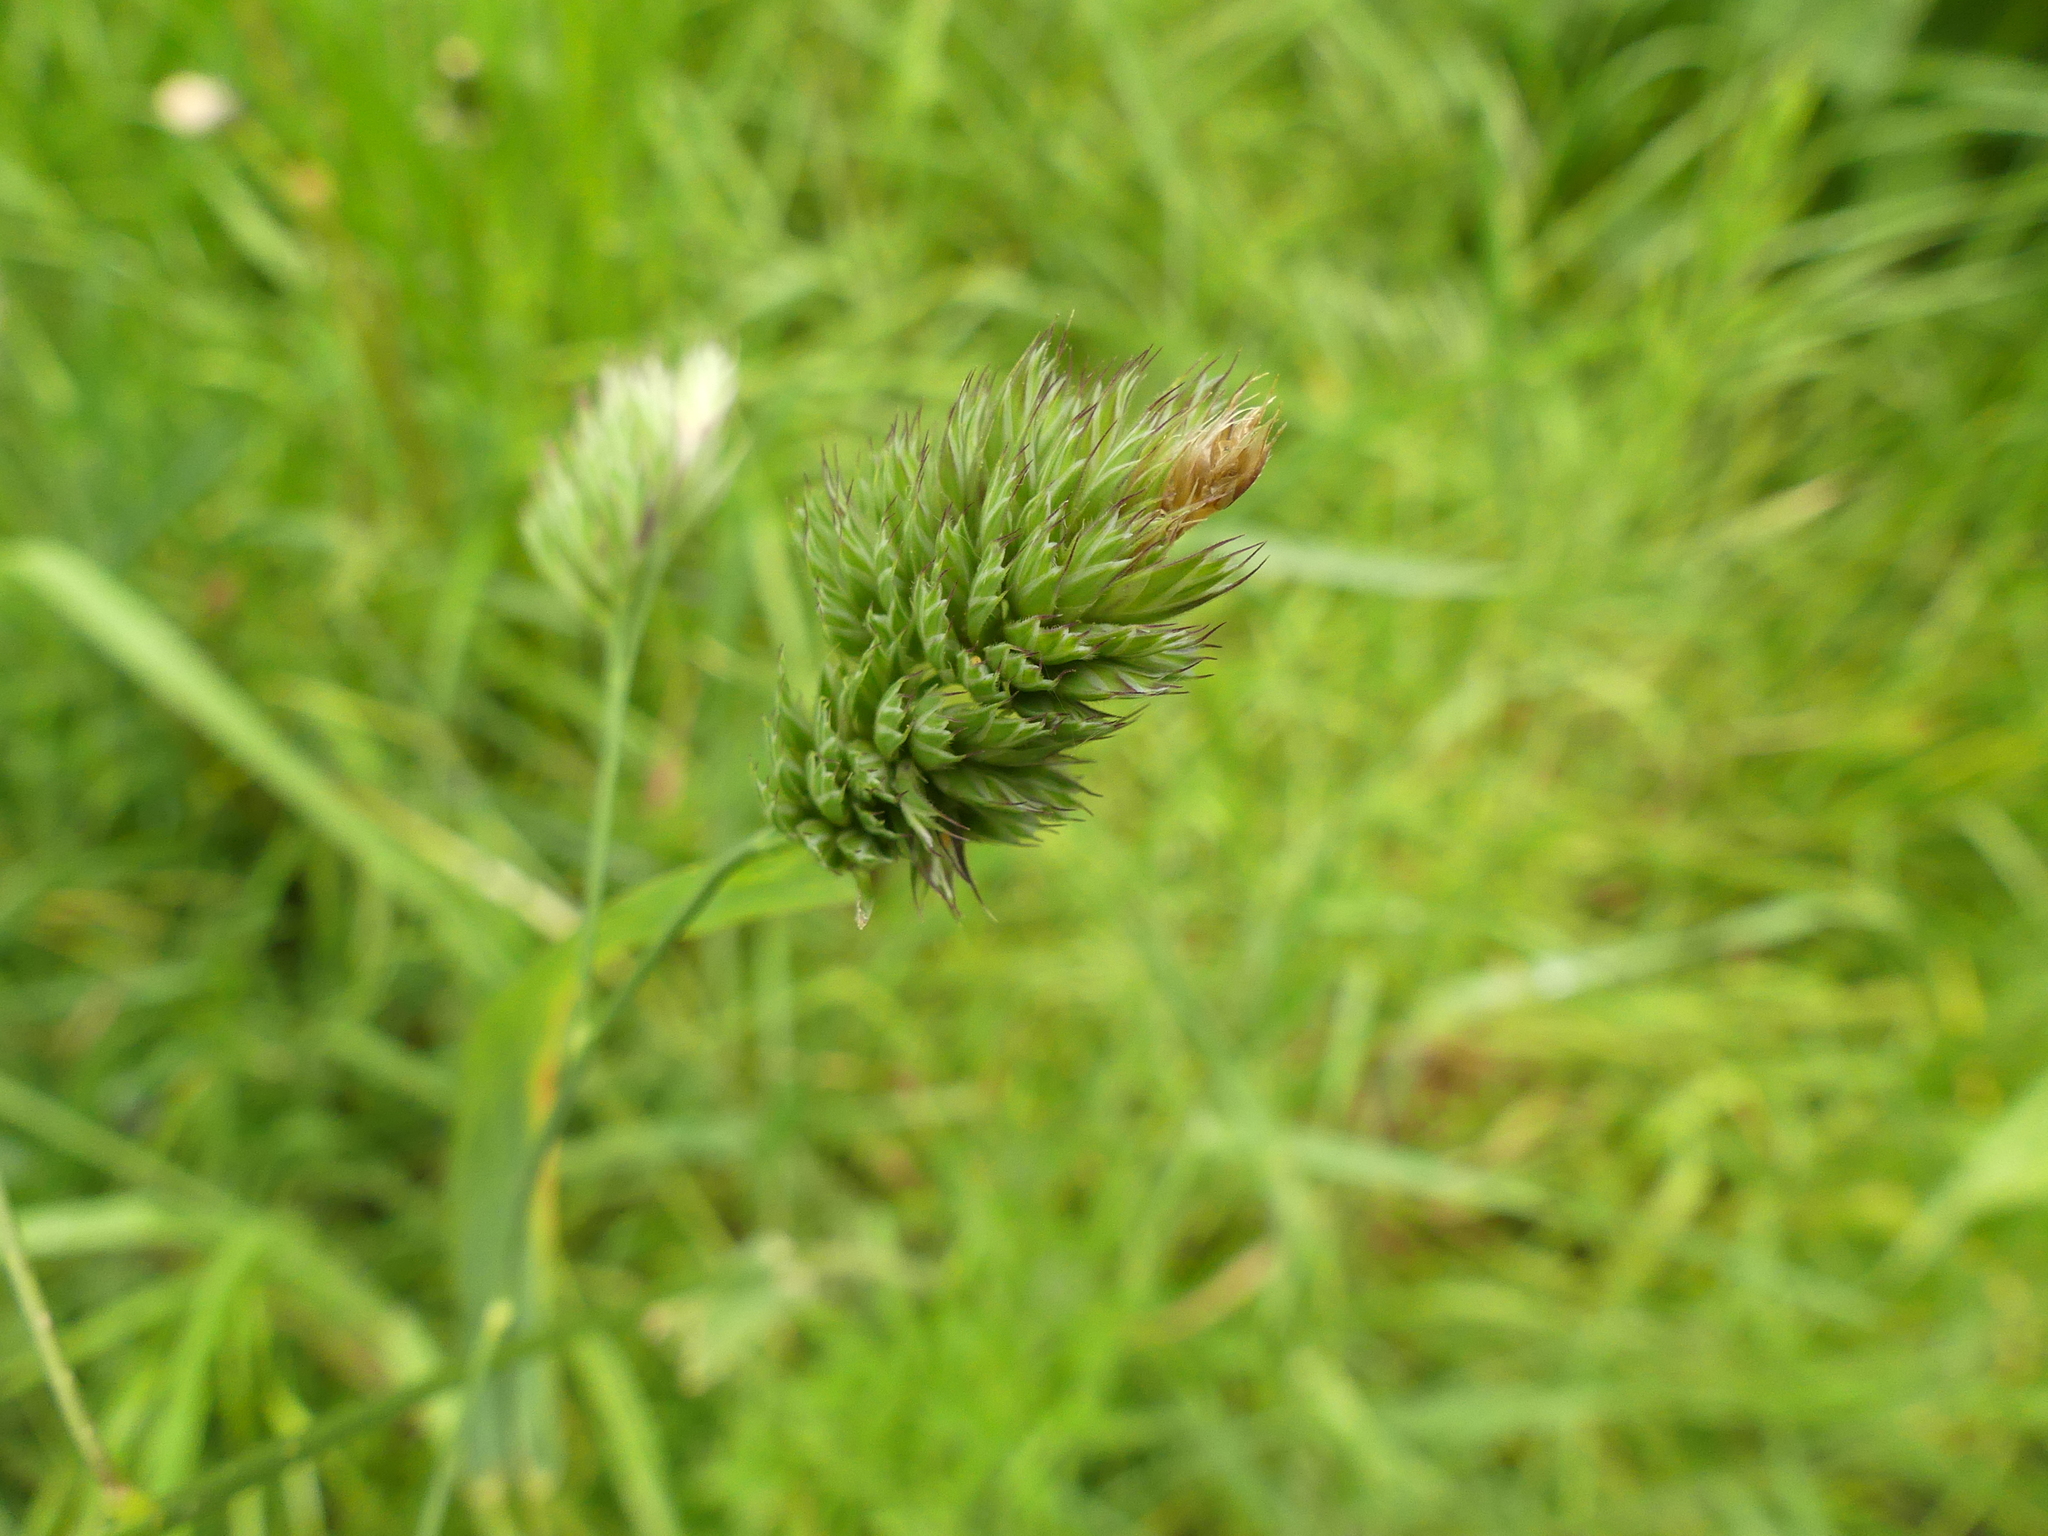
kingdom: Plantae
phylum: Tracheophyta
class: Liliopsida
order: Poales
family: Poaceae
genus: Dactylis
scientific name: Dactylis glomerata
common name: Orchardgrass
